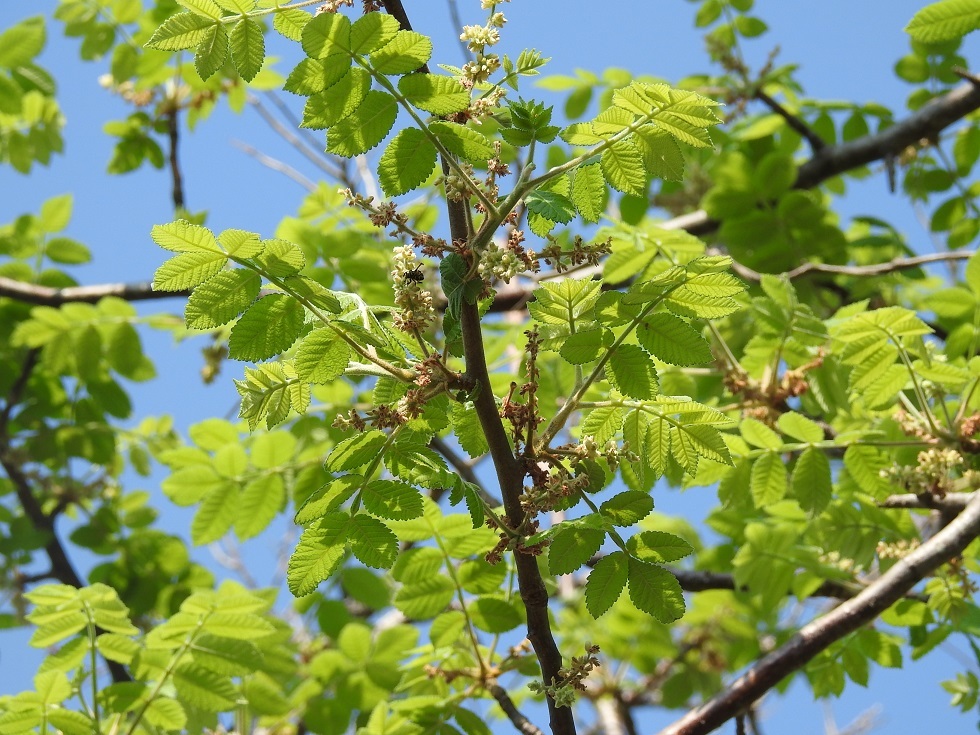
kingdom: Plantae
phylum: Tracheophyta
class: Magnoliopsida
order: Sapindales
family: Burseraceae
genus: Bursera
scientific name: Bursera excelsa
